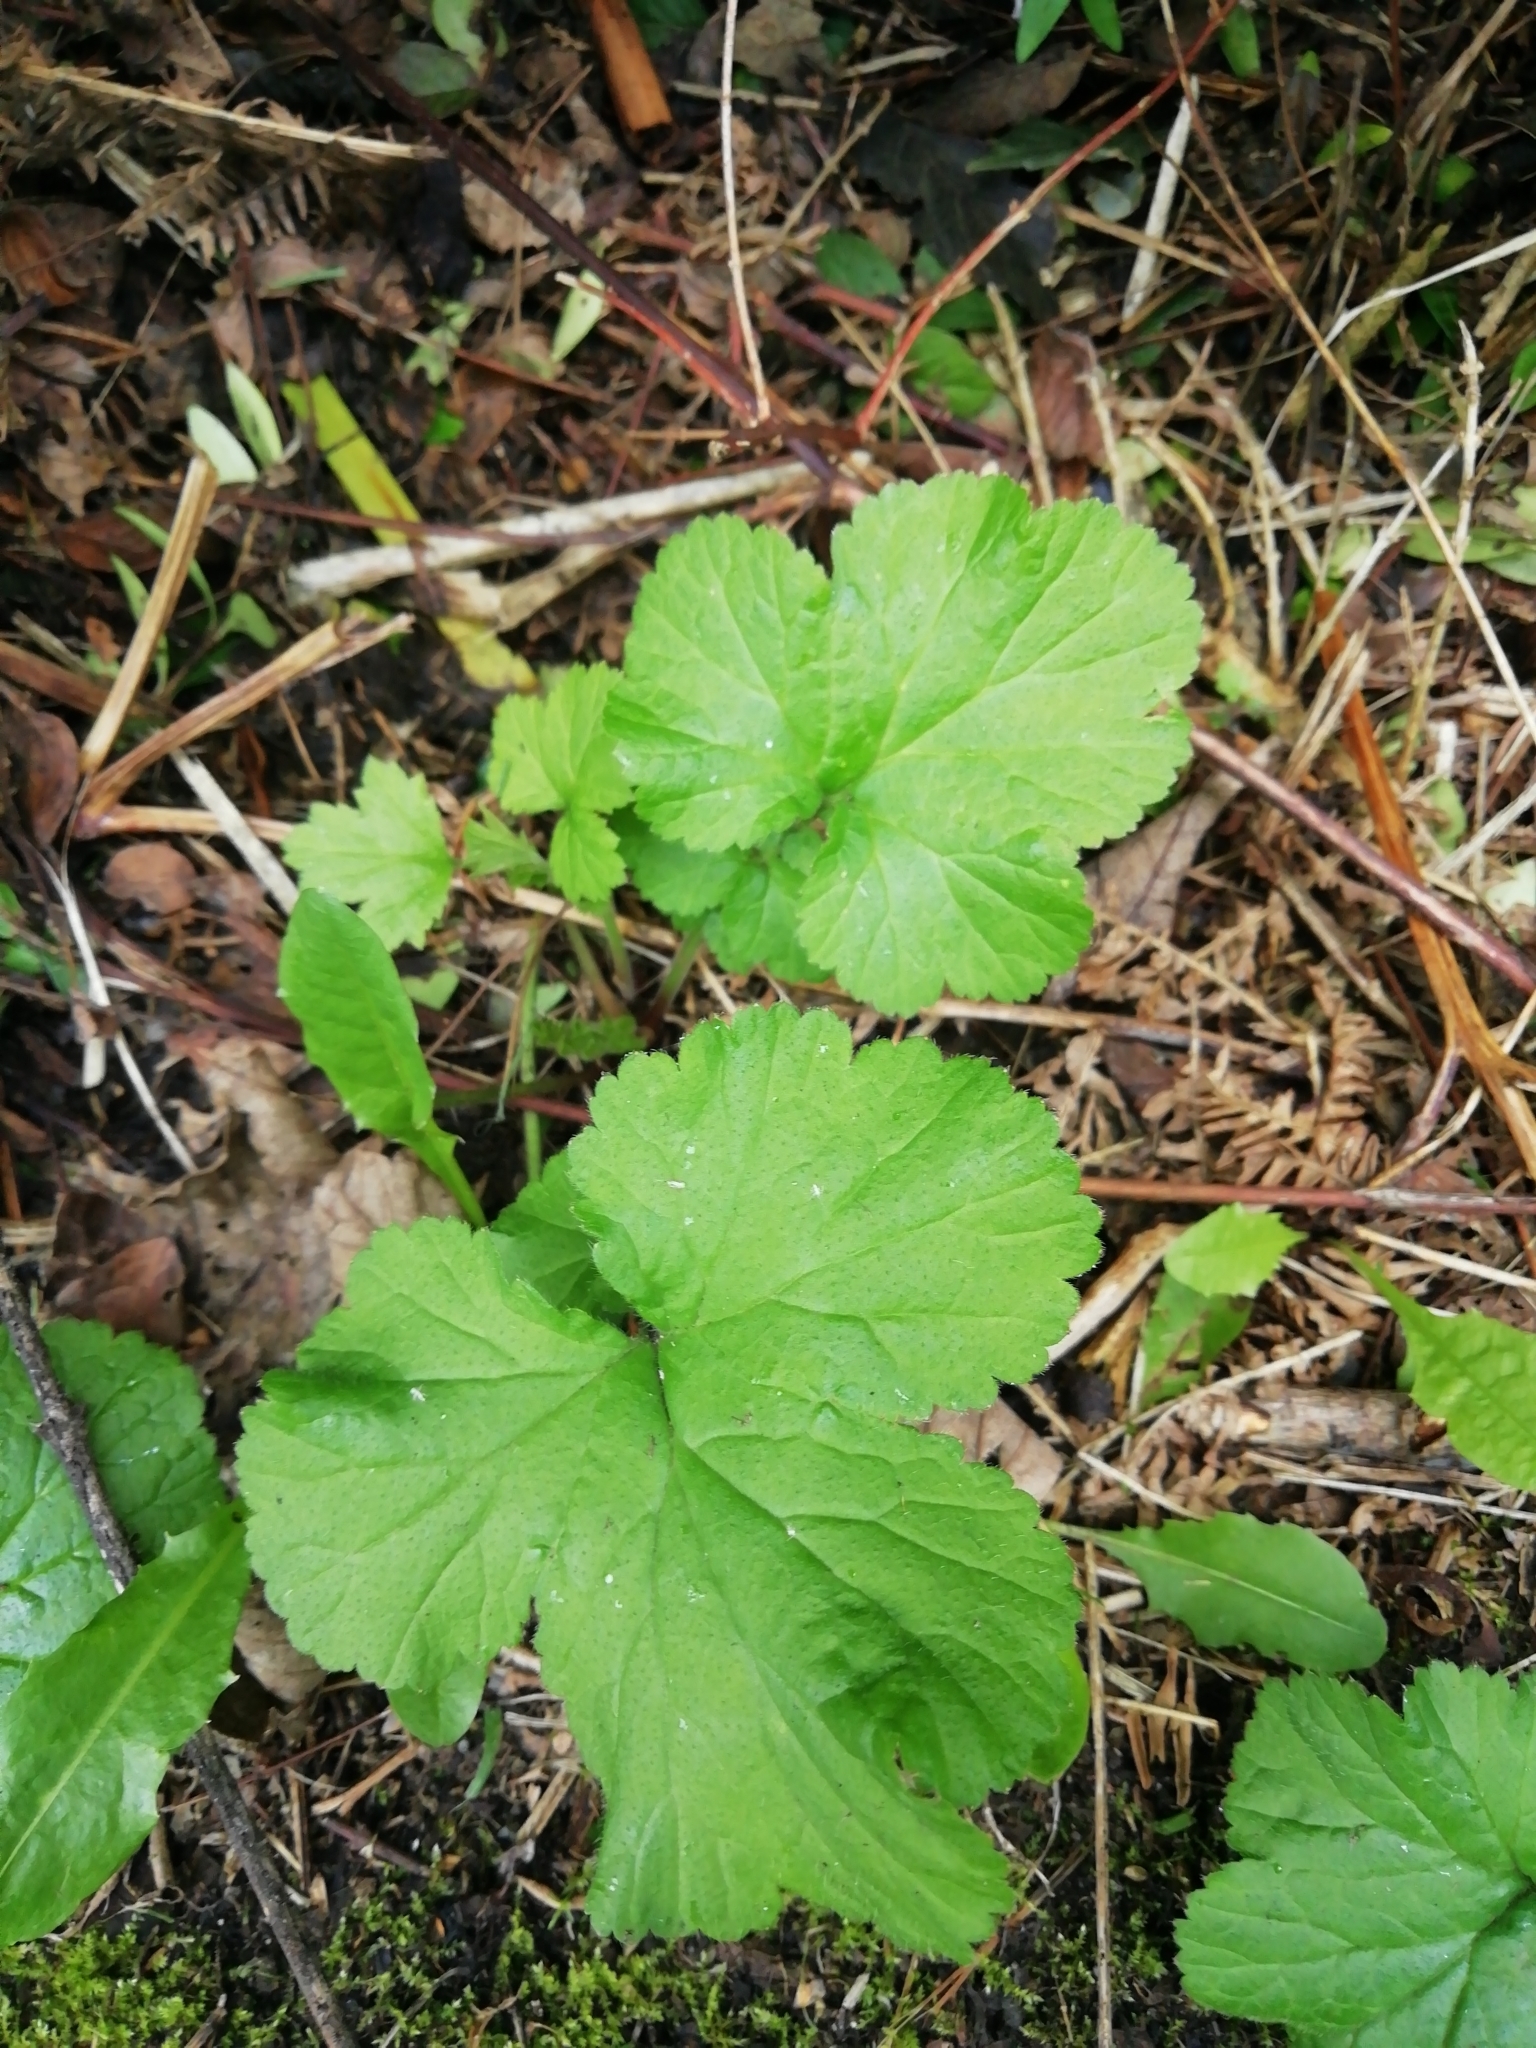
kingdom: Plantae
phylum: Tracheophyta
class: Magnoliopsida
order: Rosales
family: Rosaceae
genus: Geum
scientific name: Geum urbanum
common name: Wood avens
